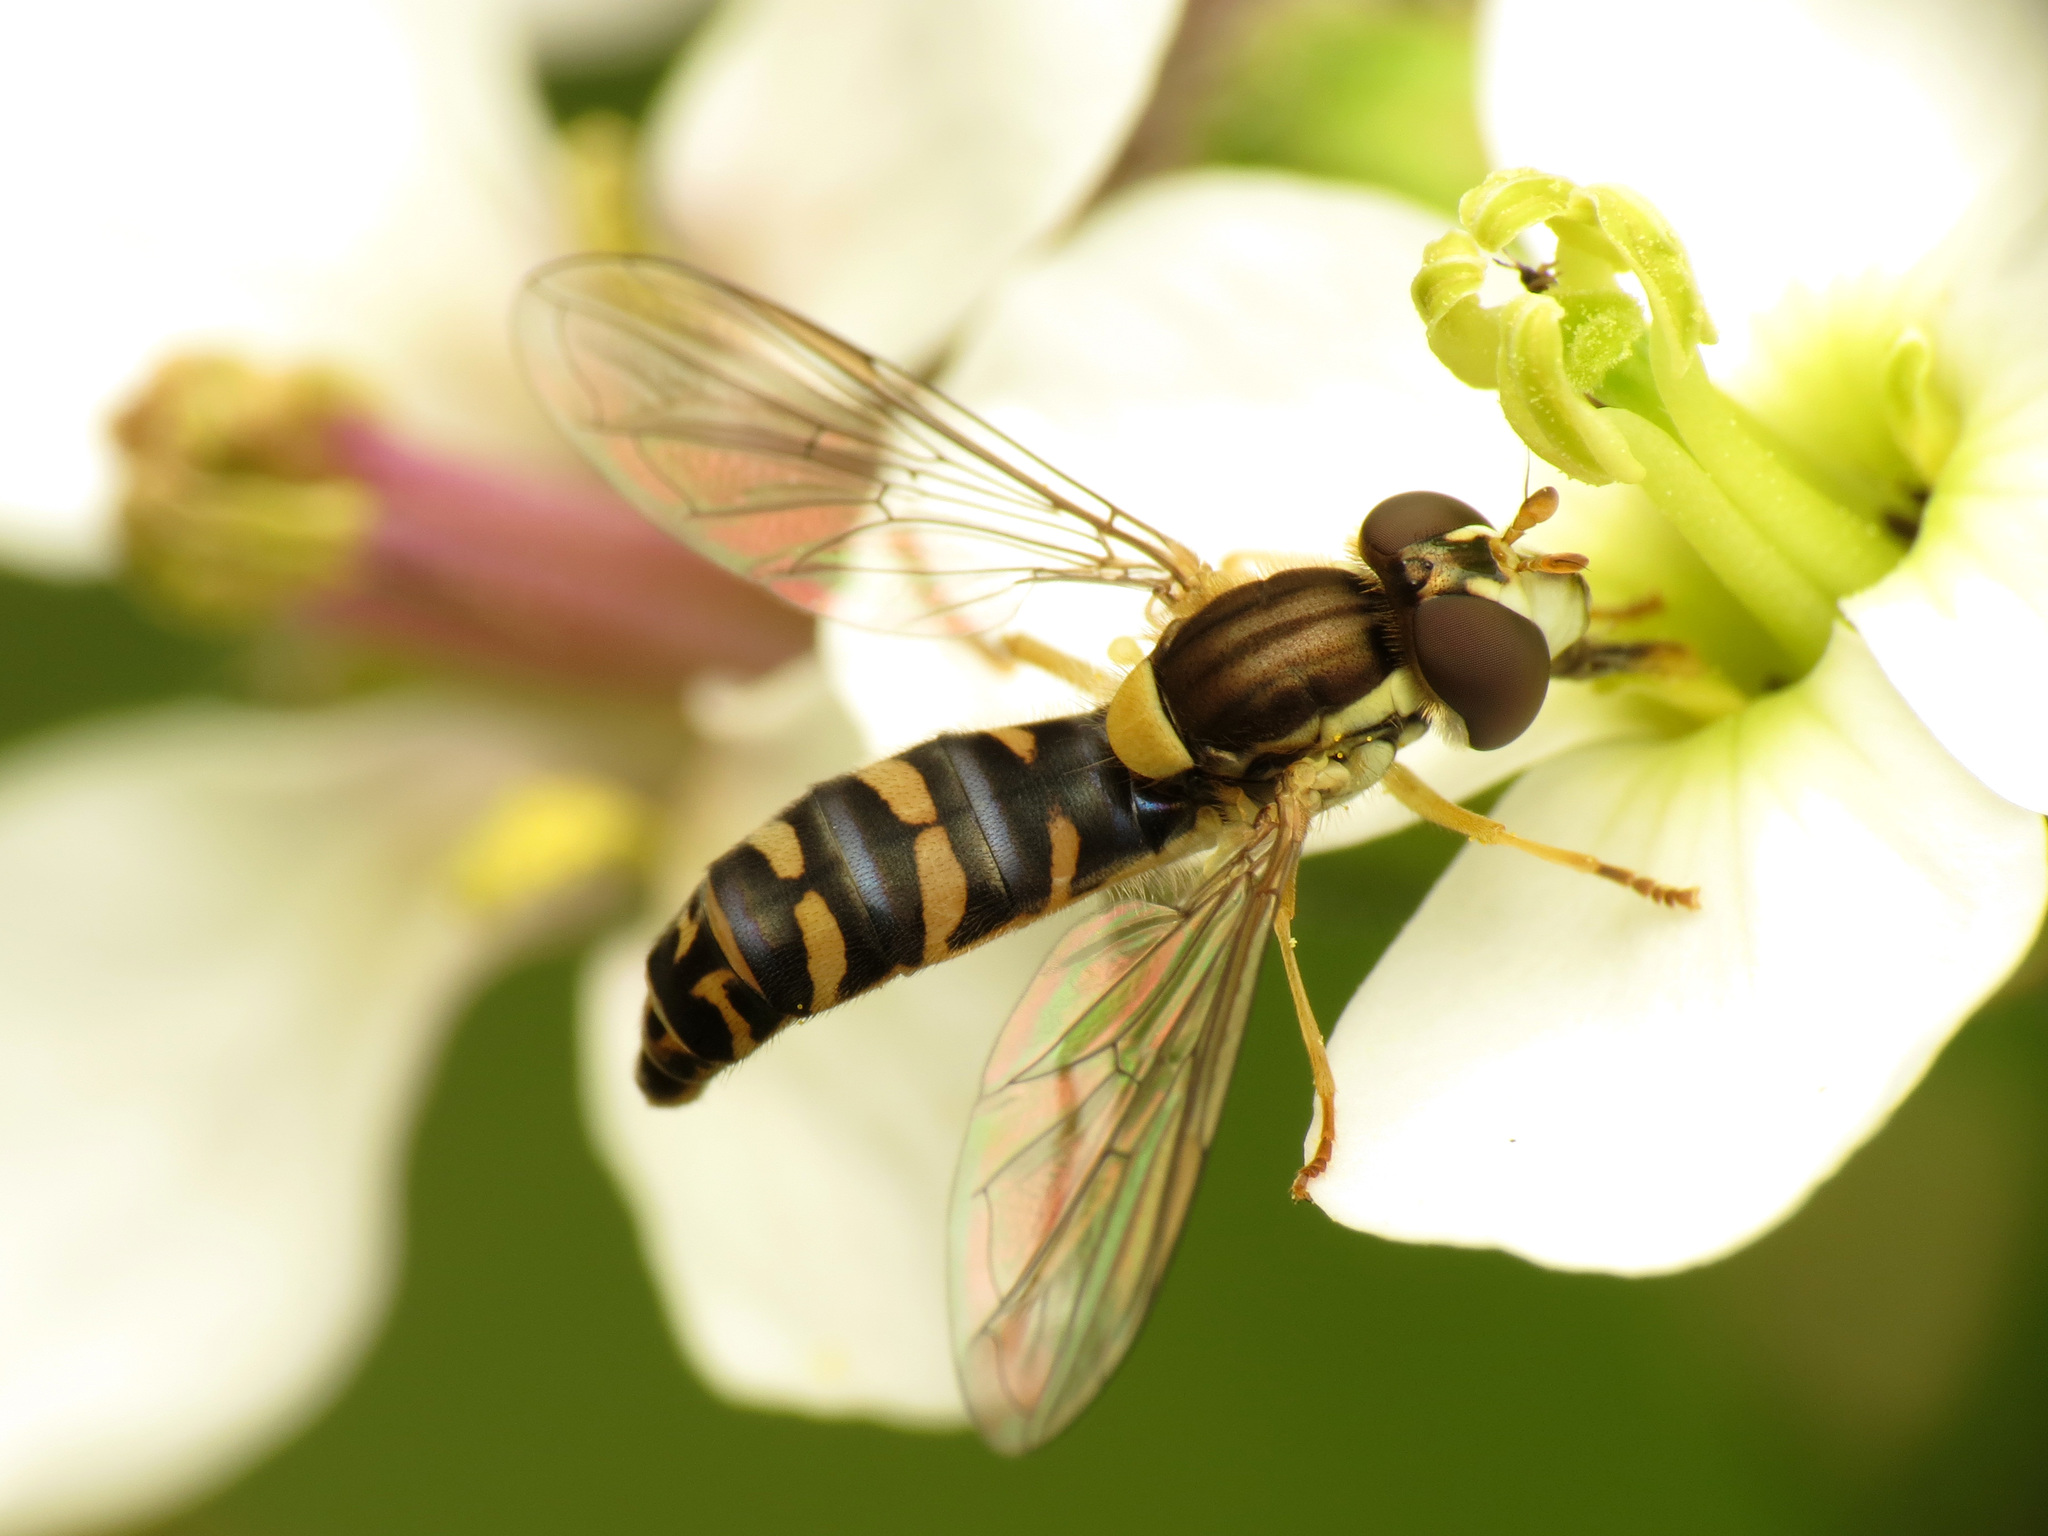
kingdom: Animalia
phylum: Arthropoda
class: Insecta
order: Diptera
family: Syrphidae
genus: Sphaerophoria
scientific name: Sphaerophoria
